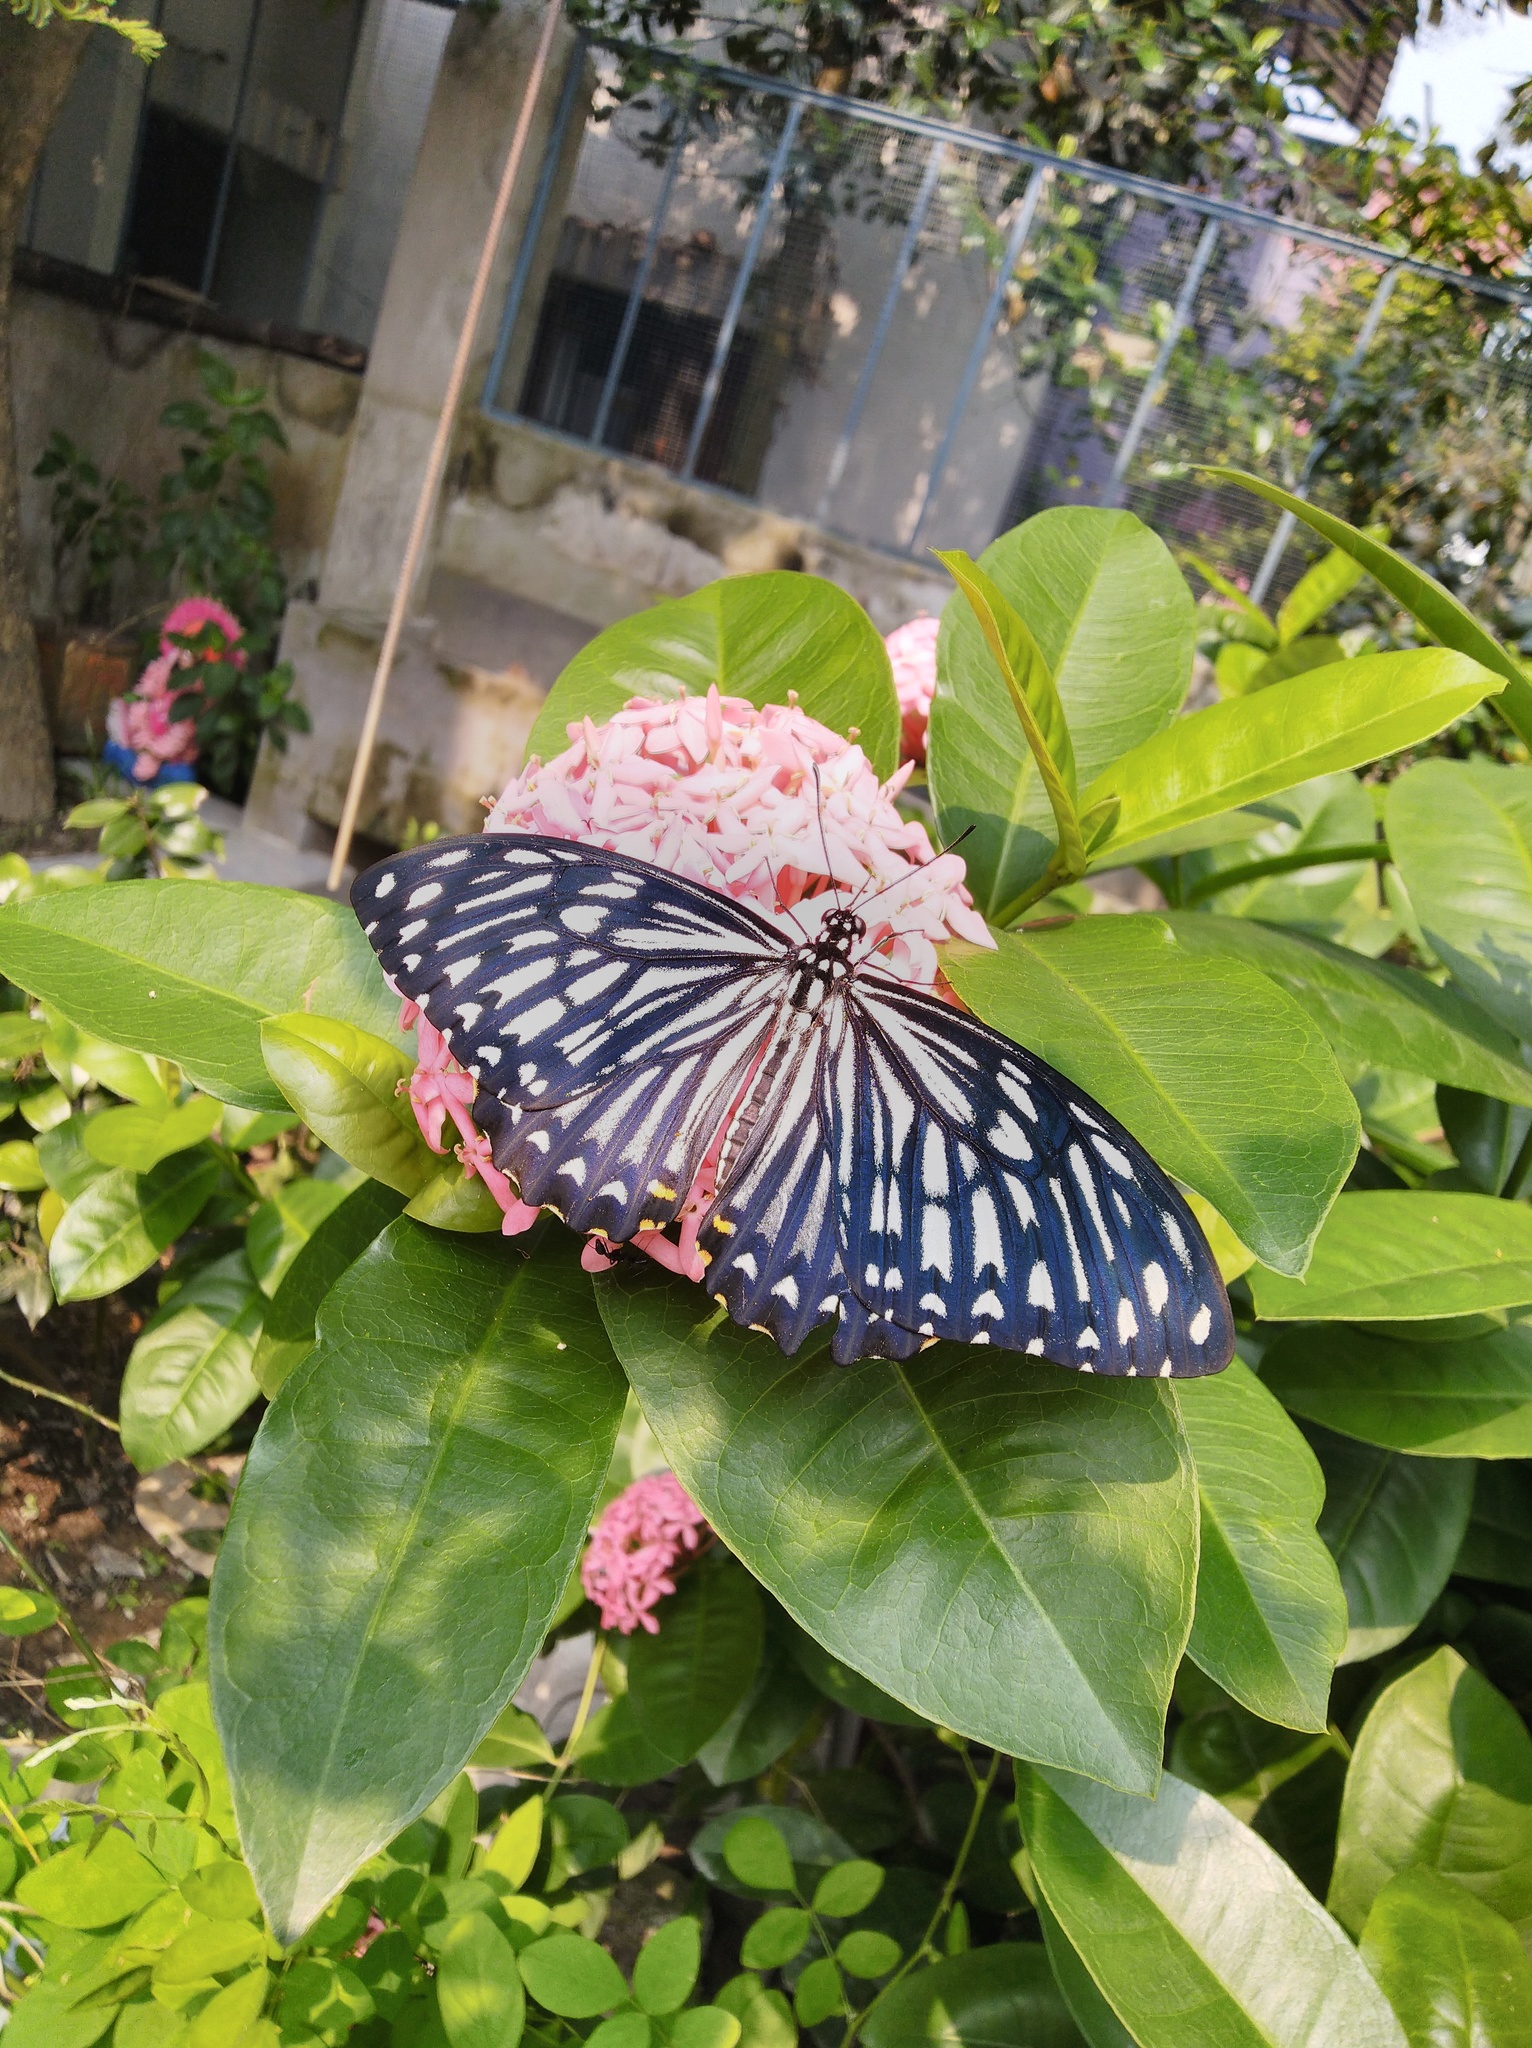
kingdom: Animalia
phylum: Arthropoda
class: Insecta
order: Lepidoptera
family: Papilionidae
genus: Chilasa
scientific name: Chilasa clytia
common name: Common mime
